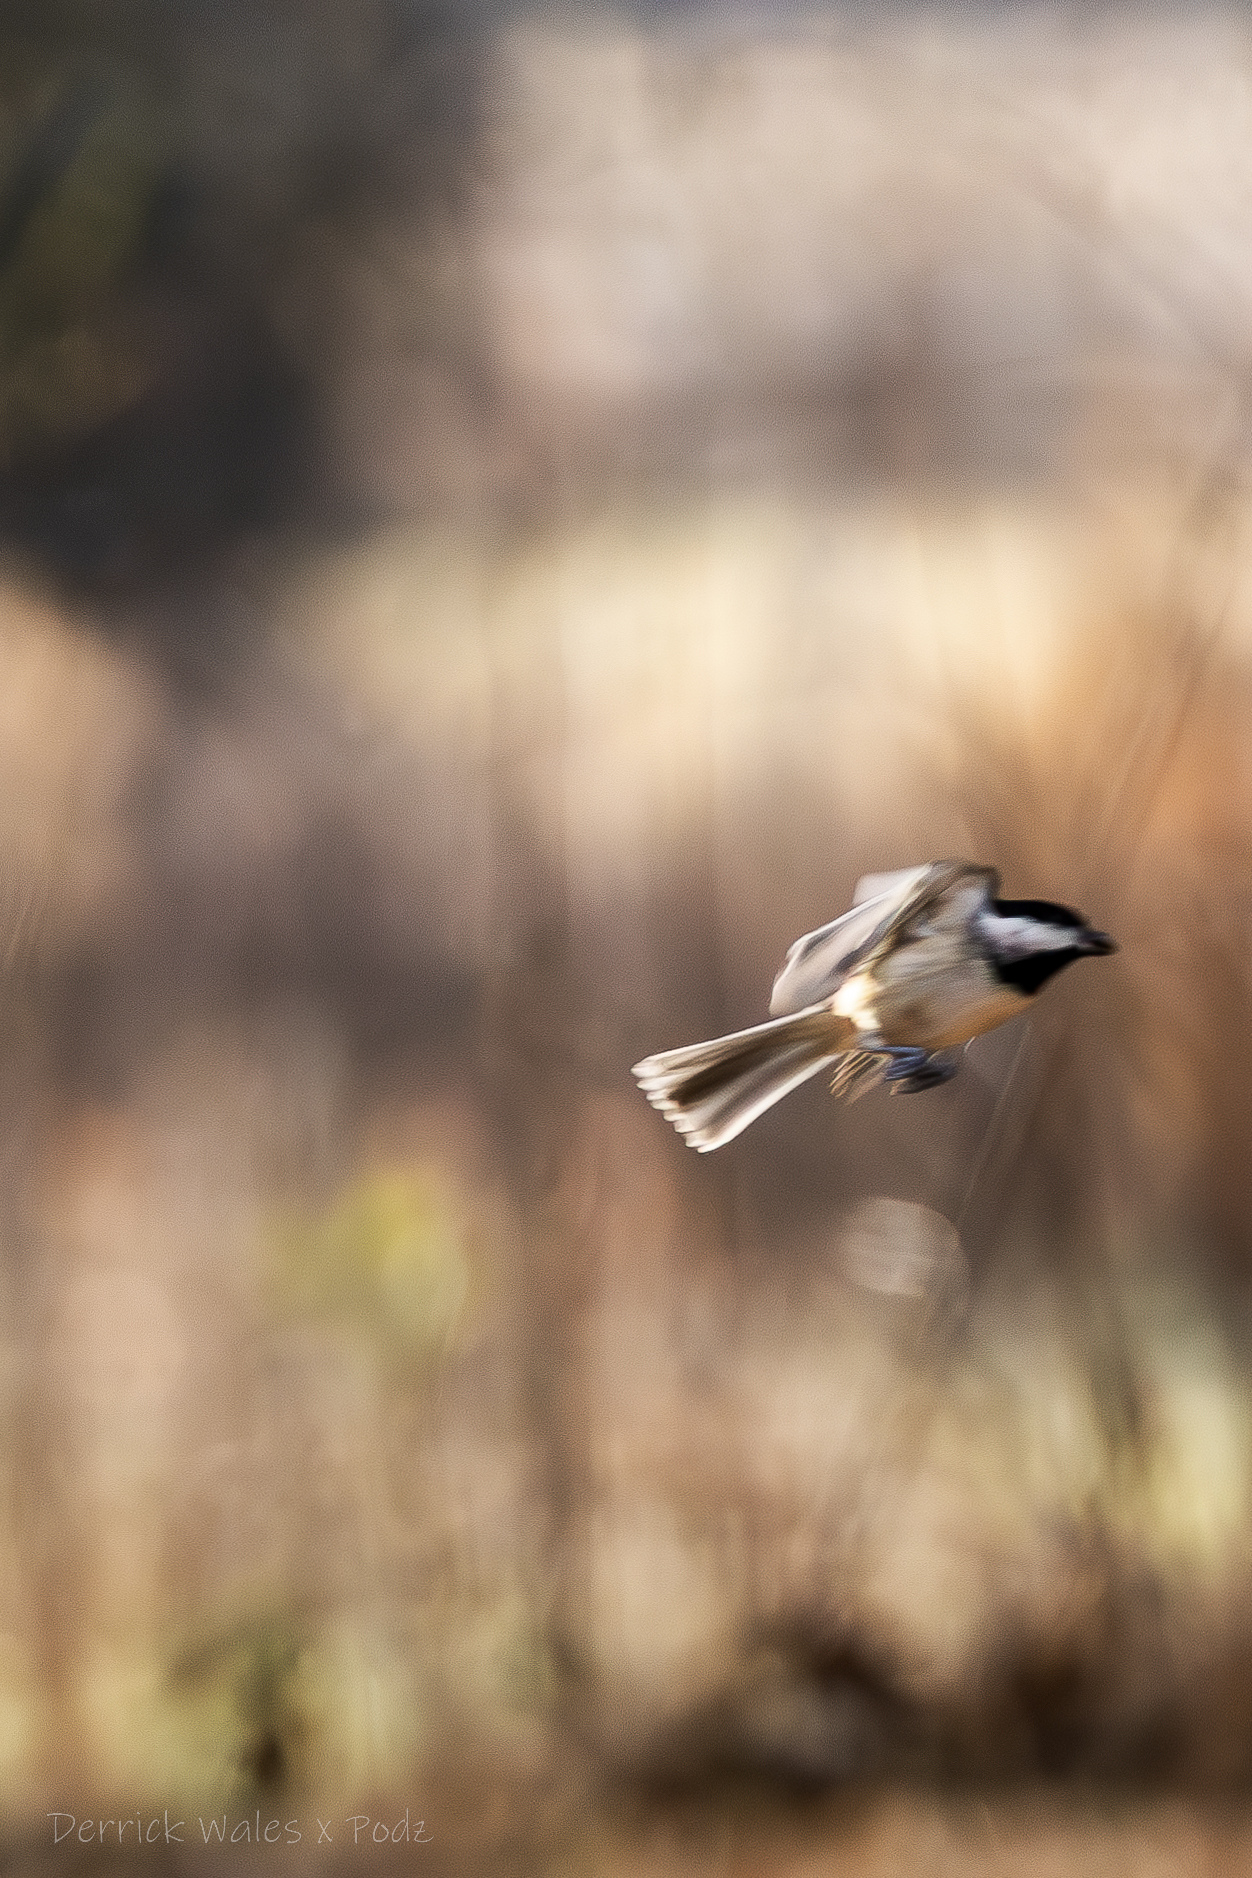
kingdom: Animalia
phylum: Chordata
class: Aves
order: Passeriformes
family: Paridae
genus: Poecile
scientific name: Poecile carolinensis
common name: Carolina chickadee
